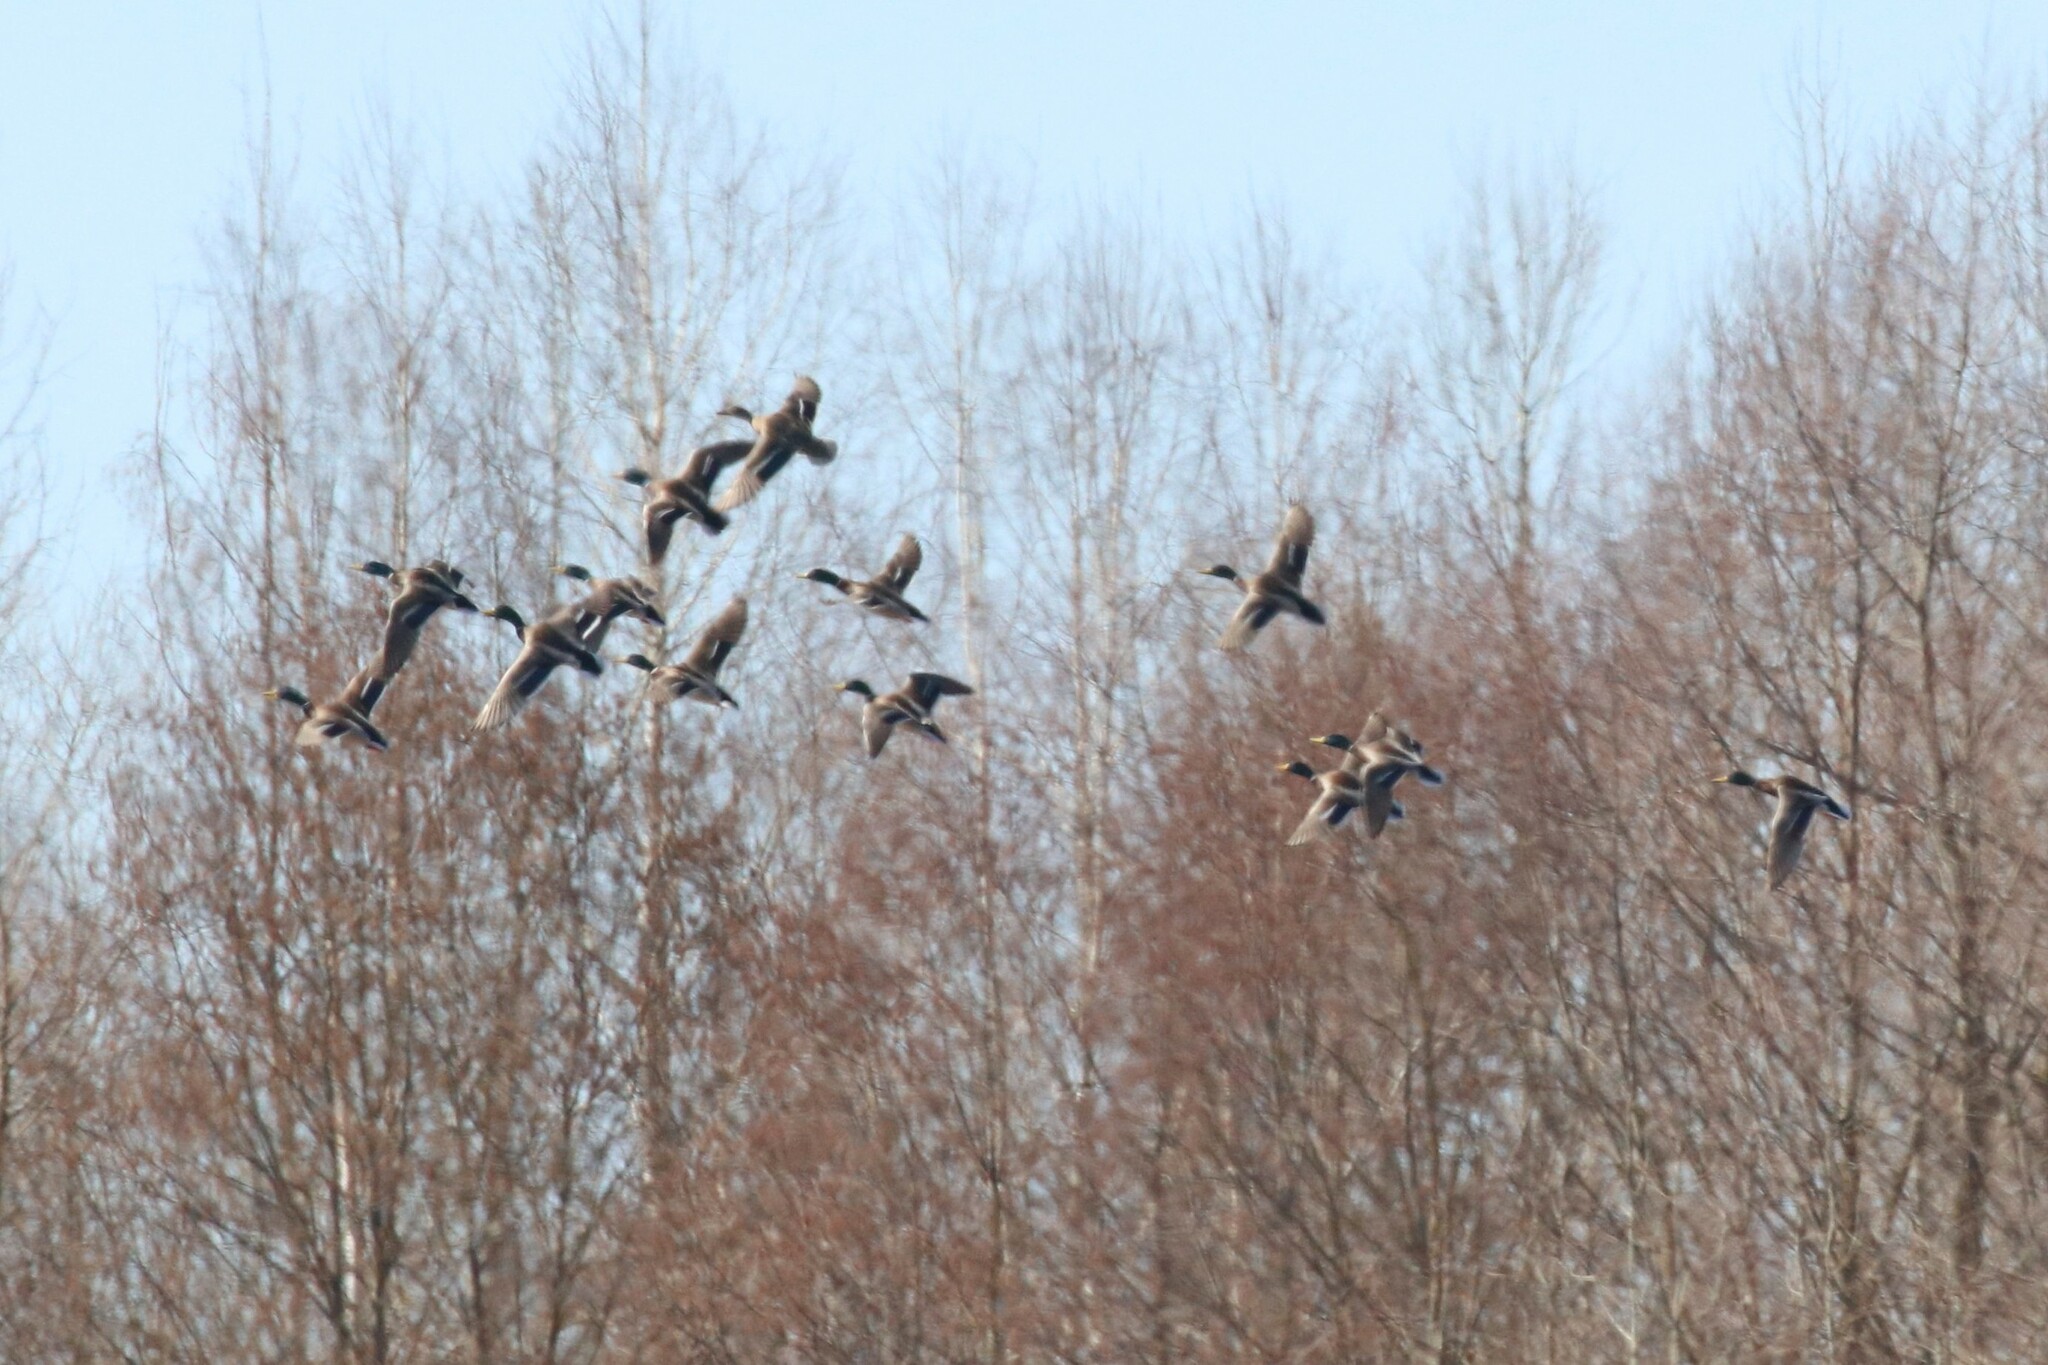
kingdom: Animalia
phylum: Chordata
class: Aves
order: Anseriformes
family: Anatidae
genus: Anas
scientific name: Anas platyrhynchos
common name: Mallard
